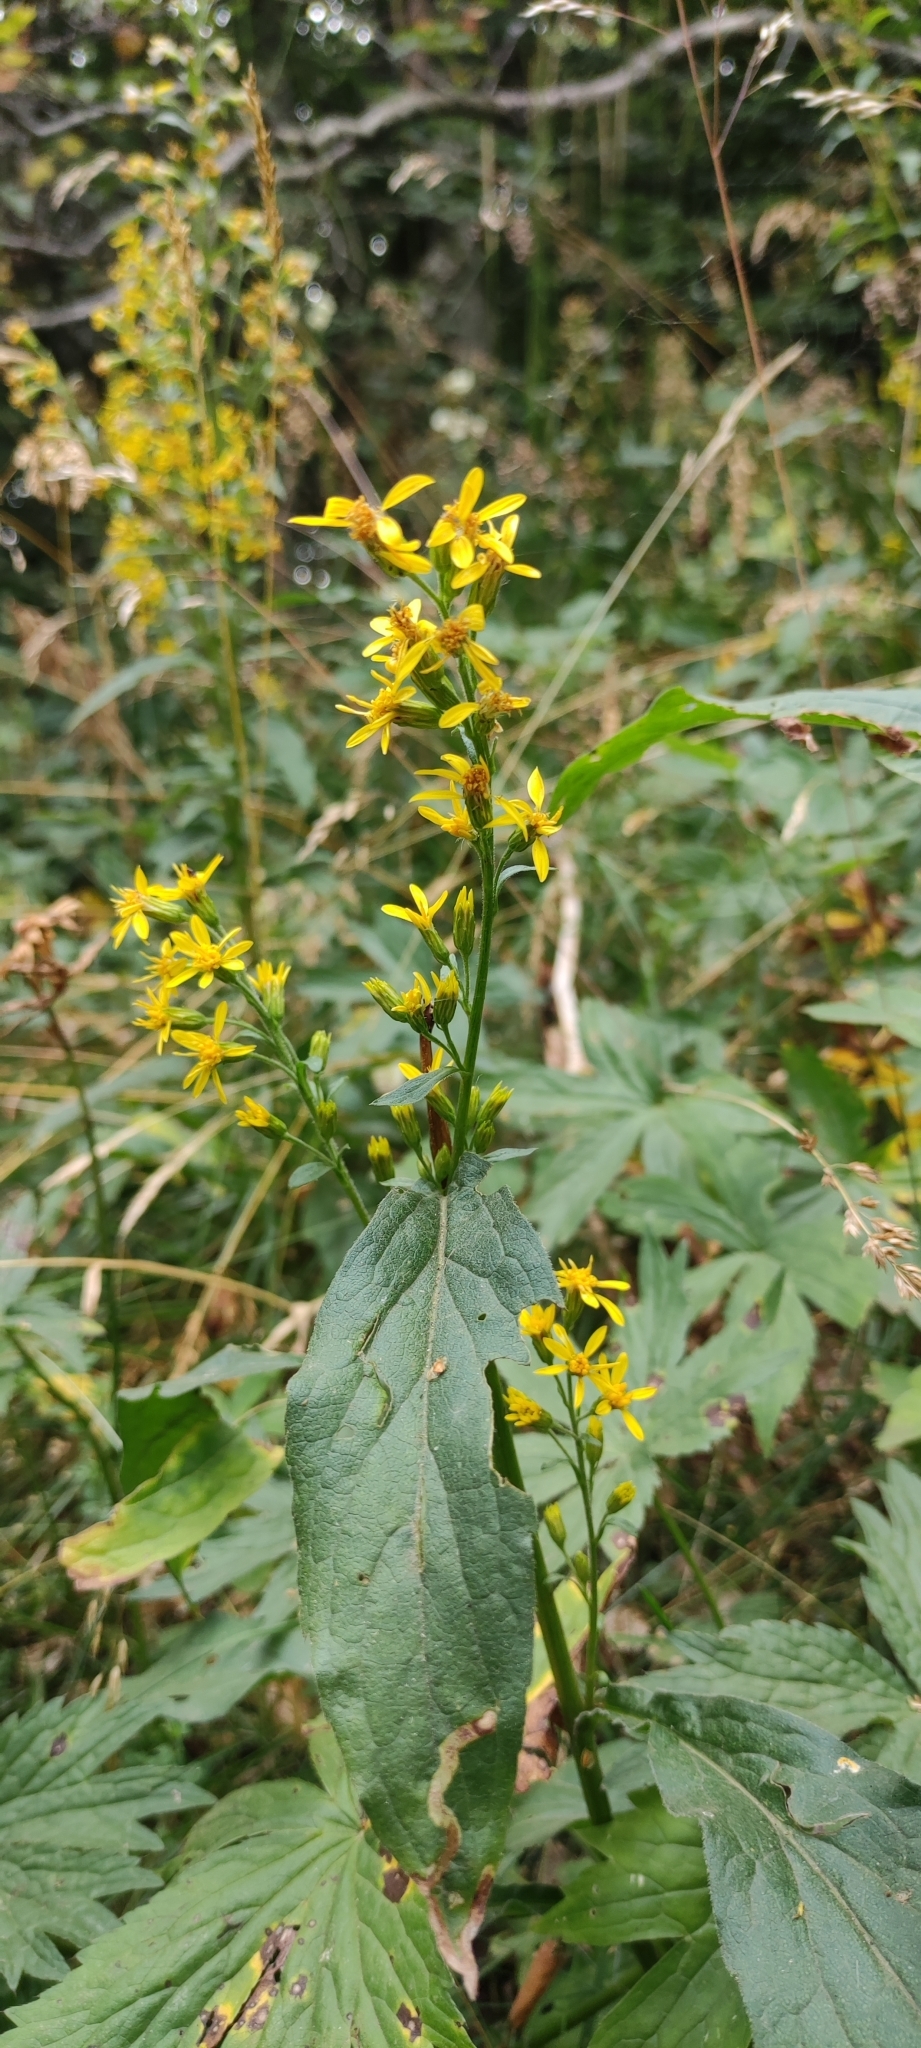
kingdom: Plantae
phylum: Tracheophyta
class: Magnoliopsida
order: Asterales
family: Asteraceae
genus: Solidago
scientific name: Solidago virgaurea
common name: Goldenrod
